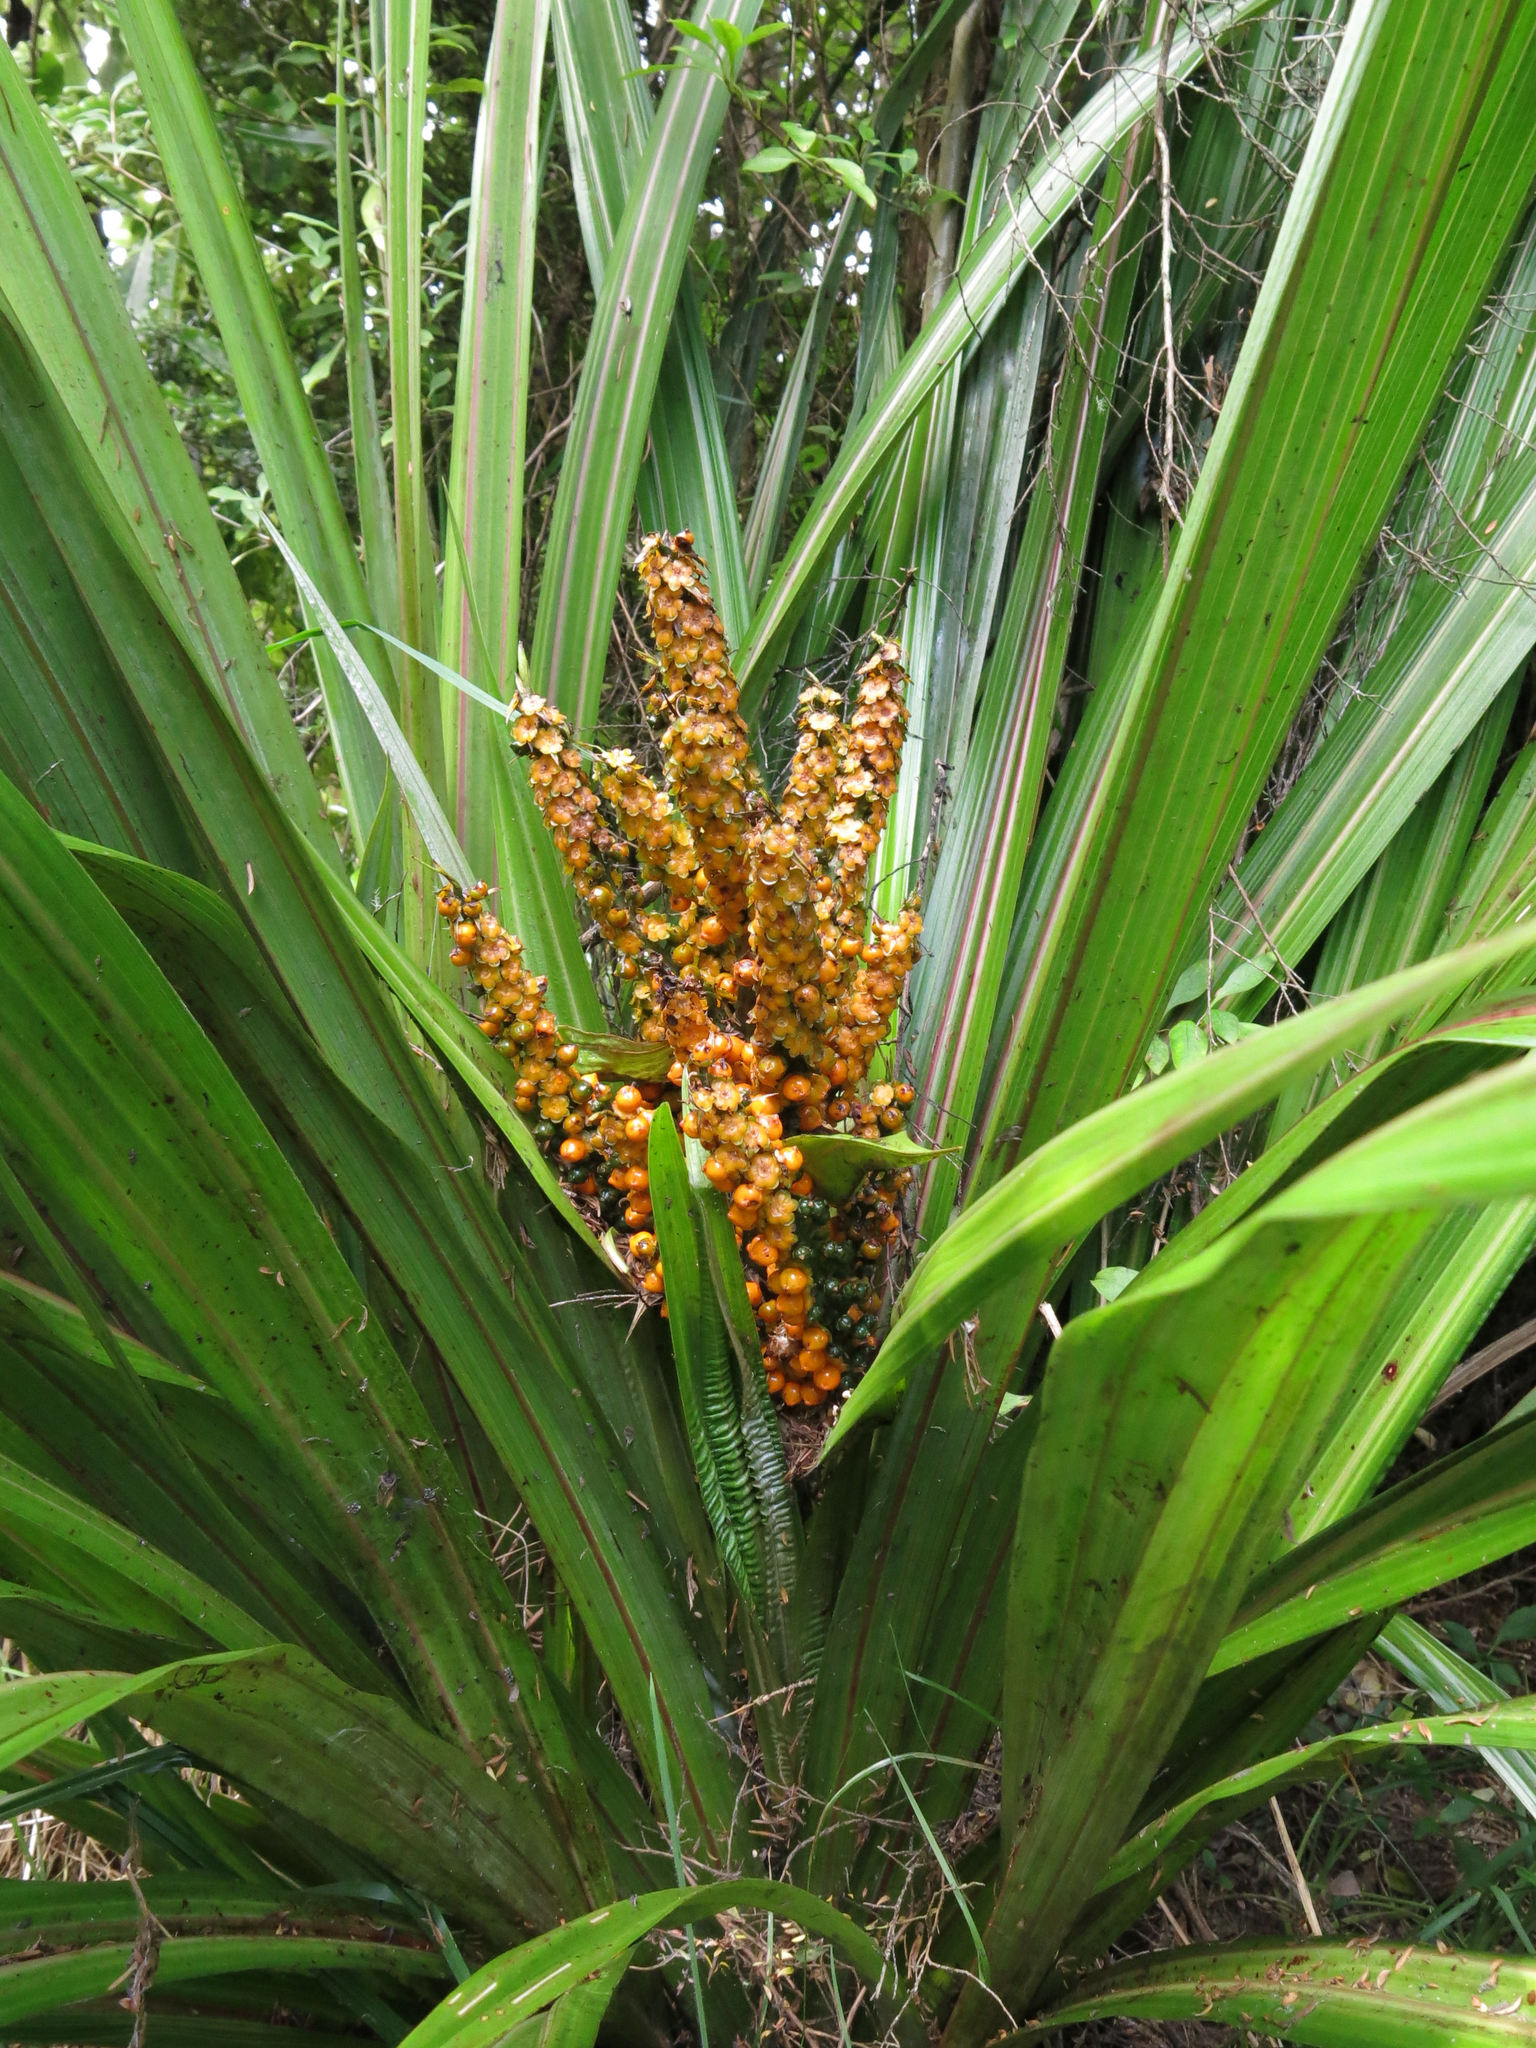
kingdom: Plantae
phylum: Tracheophyta
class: Liliopsida
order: Asparagales
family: Asteliaceae
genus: Astelia
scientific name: Astelia fragrans
